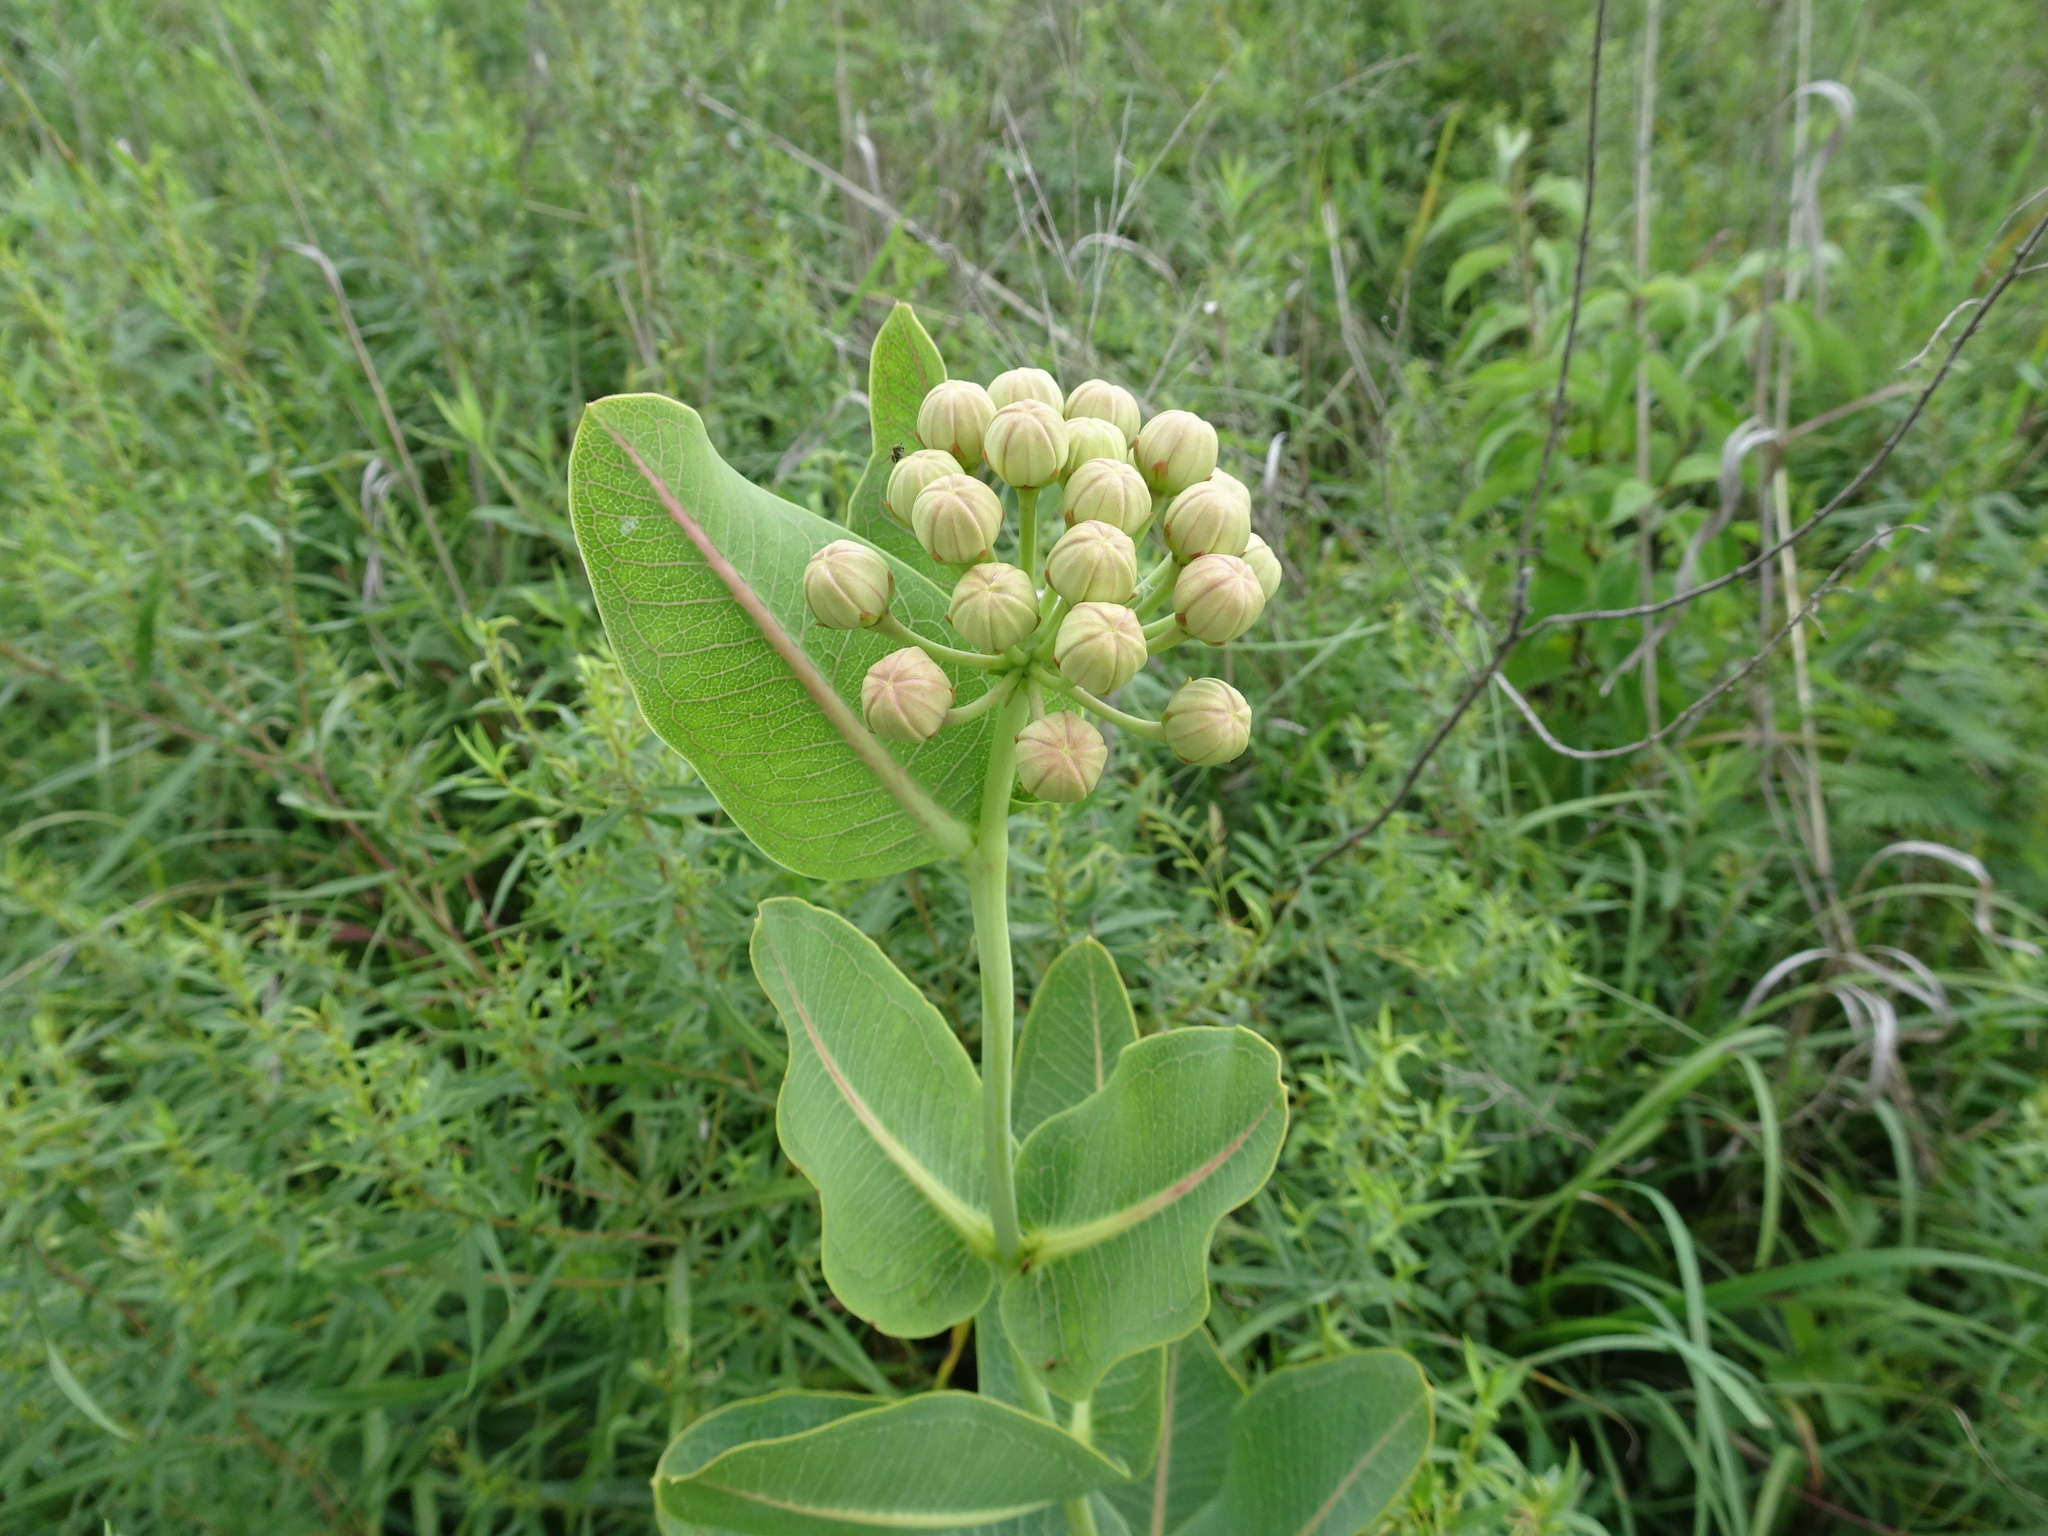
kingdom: Plantae
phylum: Tracheophyta
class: Magnoliopsida
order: Gentianales
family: Apocynaceae
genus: Asclepias
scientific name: Asclepias sullivantii
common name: Prairie milkweed
